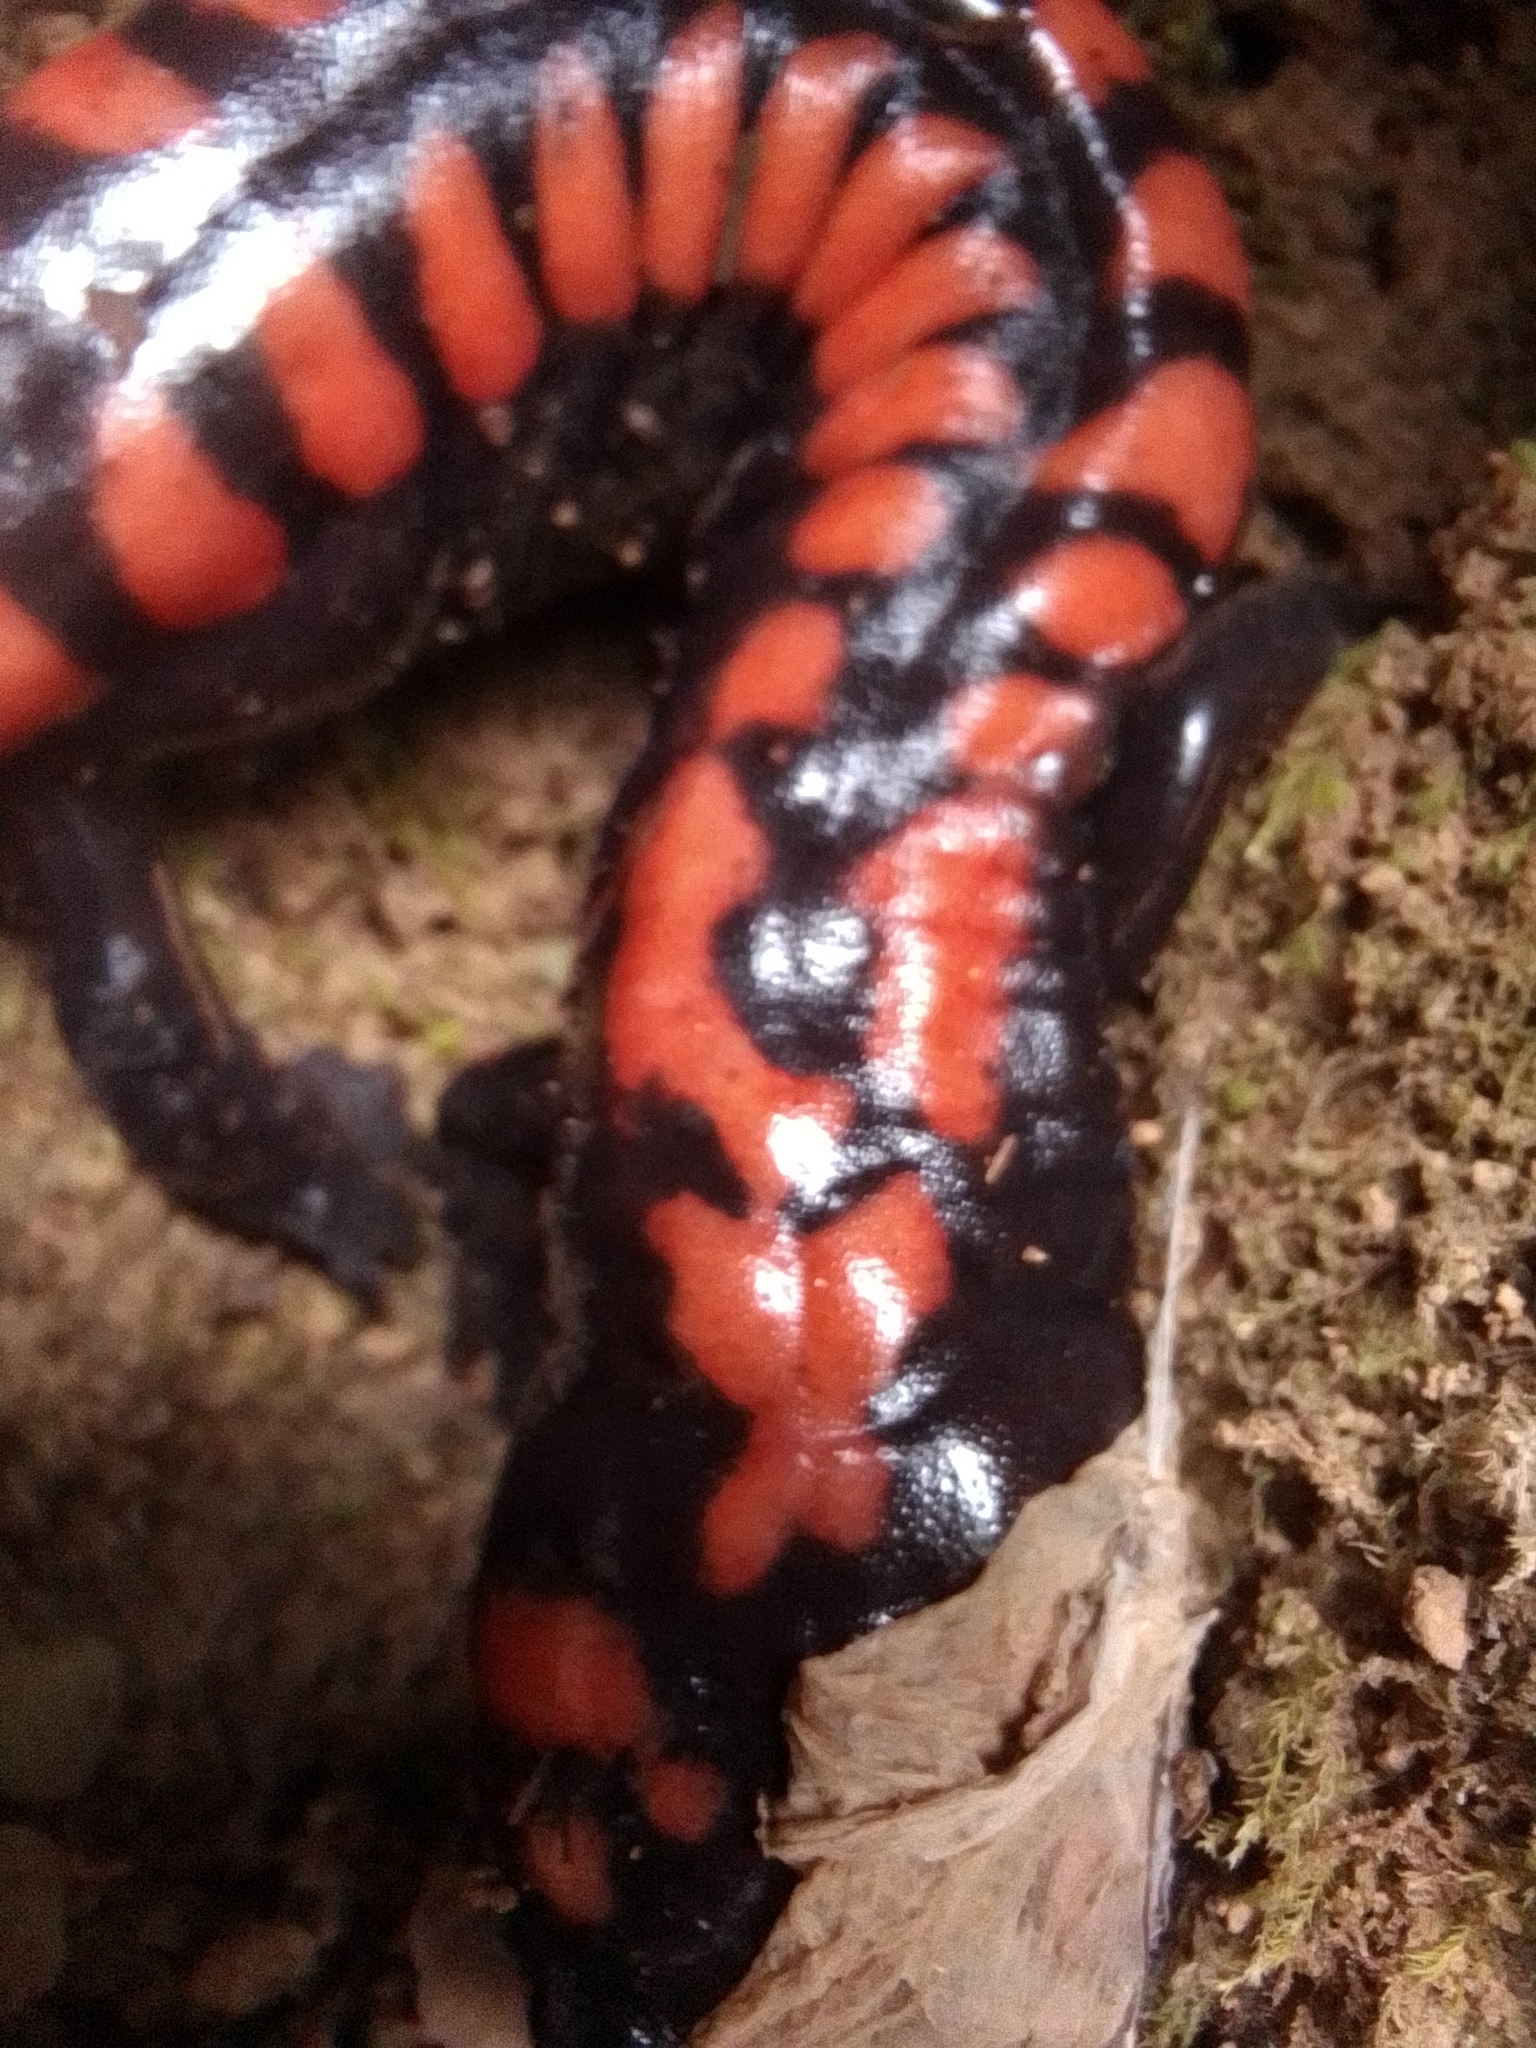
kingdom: Animalia
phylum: Chordata
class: Amphibia
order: Caudata
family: Plethodontidae
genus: Isthmura
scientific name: Isthmura bellii
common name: Bell's false brook salamander
